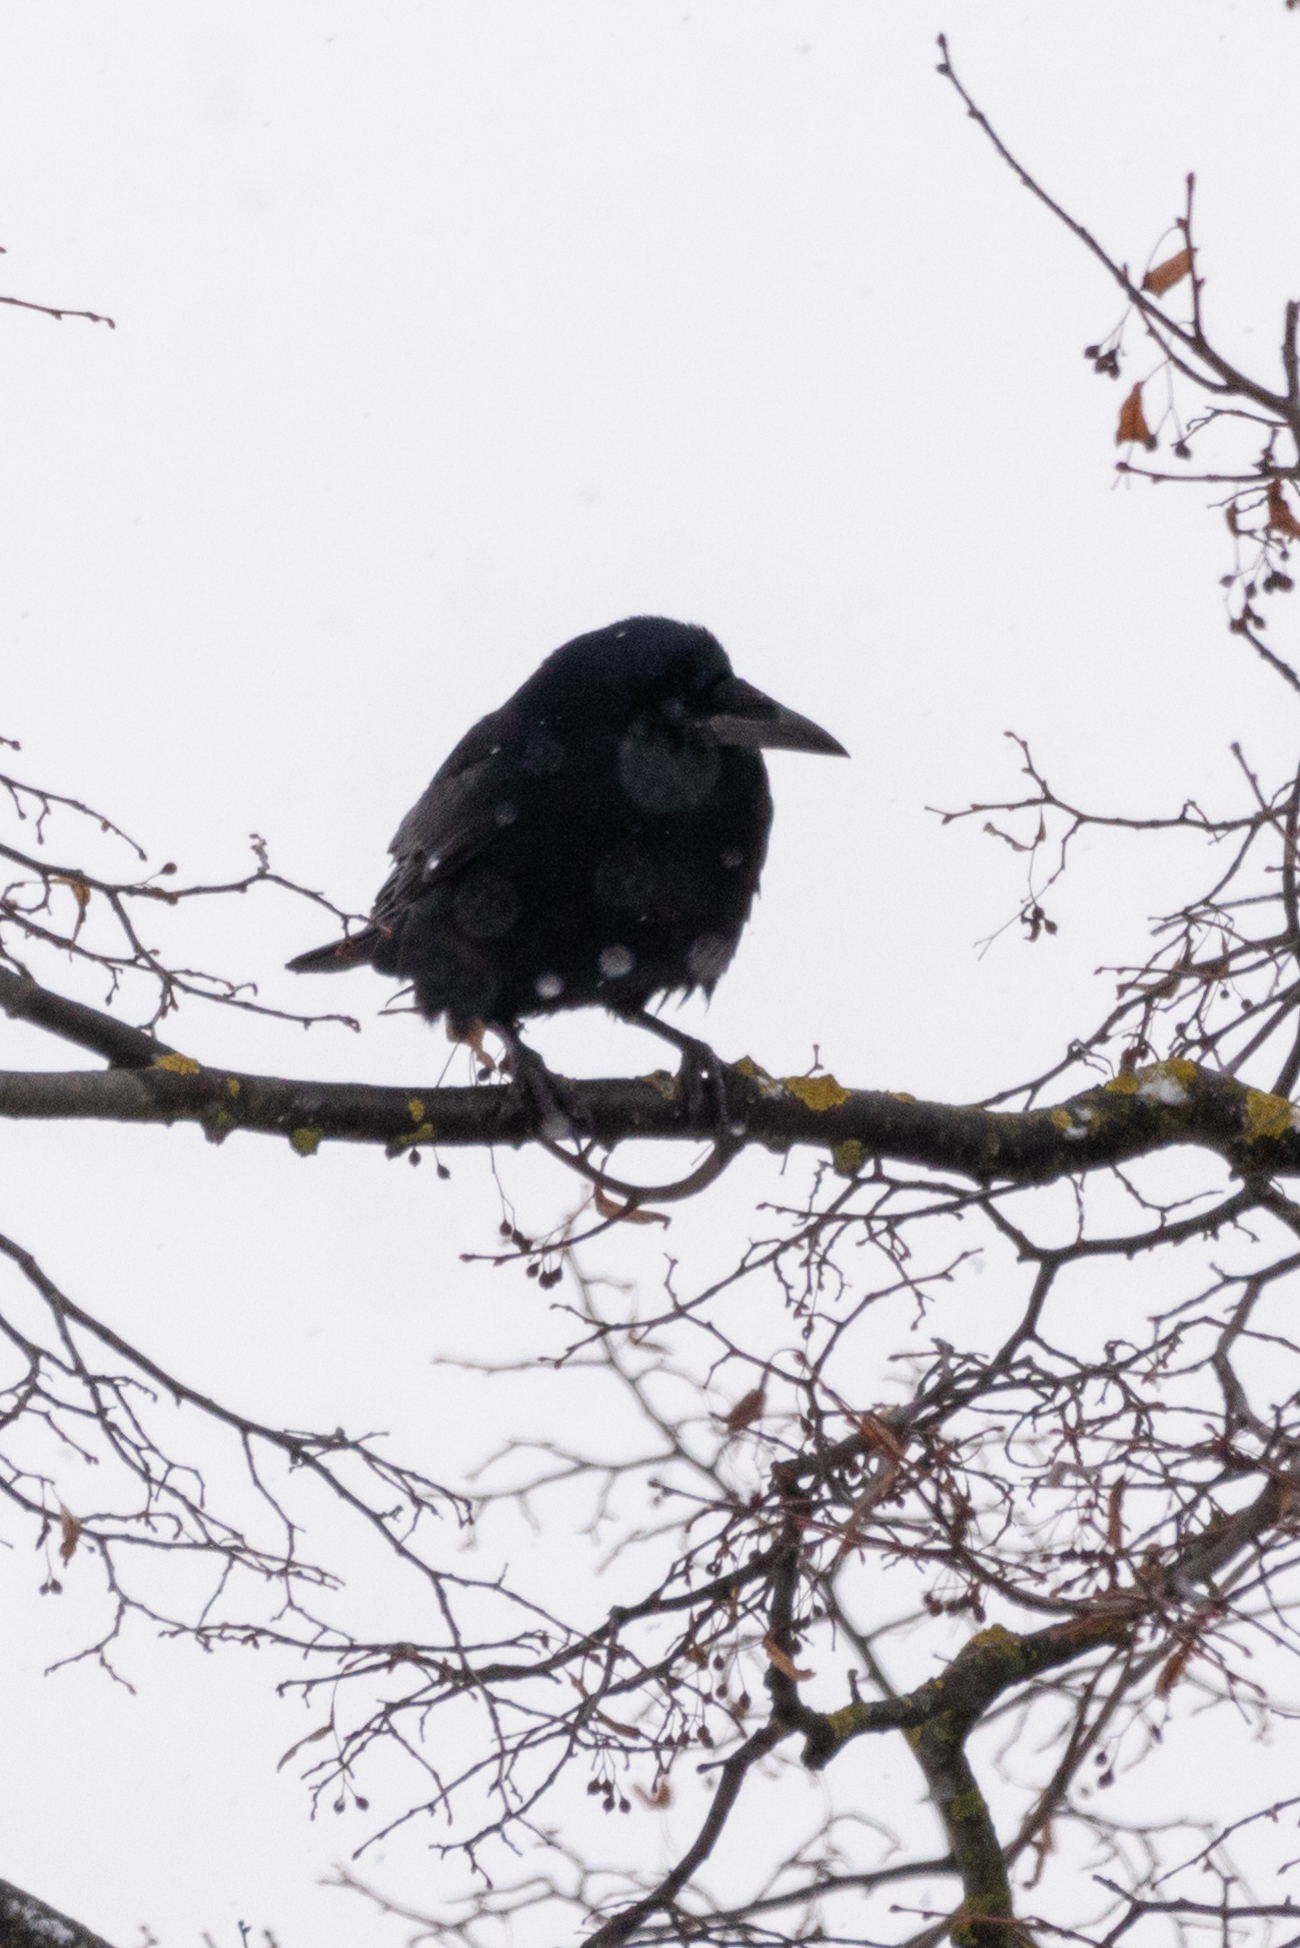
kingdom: Animalia
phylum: Chordata
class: Aves
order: Passeriformes
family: Corvidae
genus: Corvus
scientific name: Corvus frugilegus
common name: Rook
